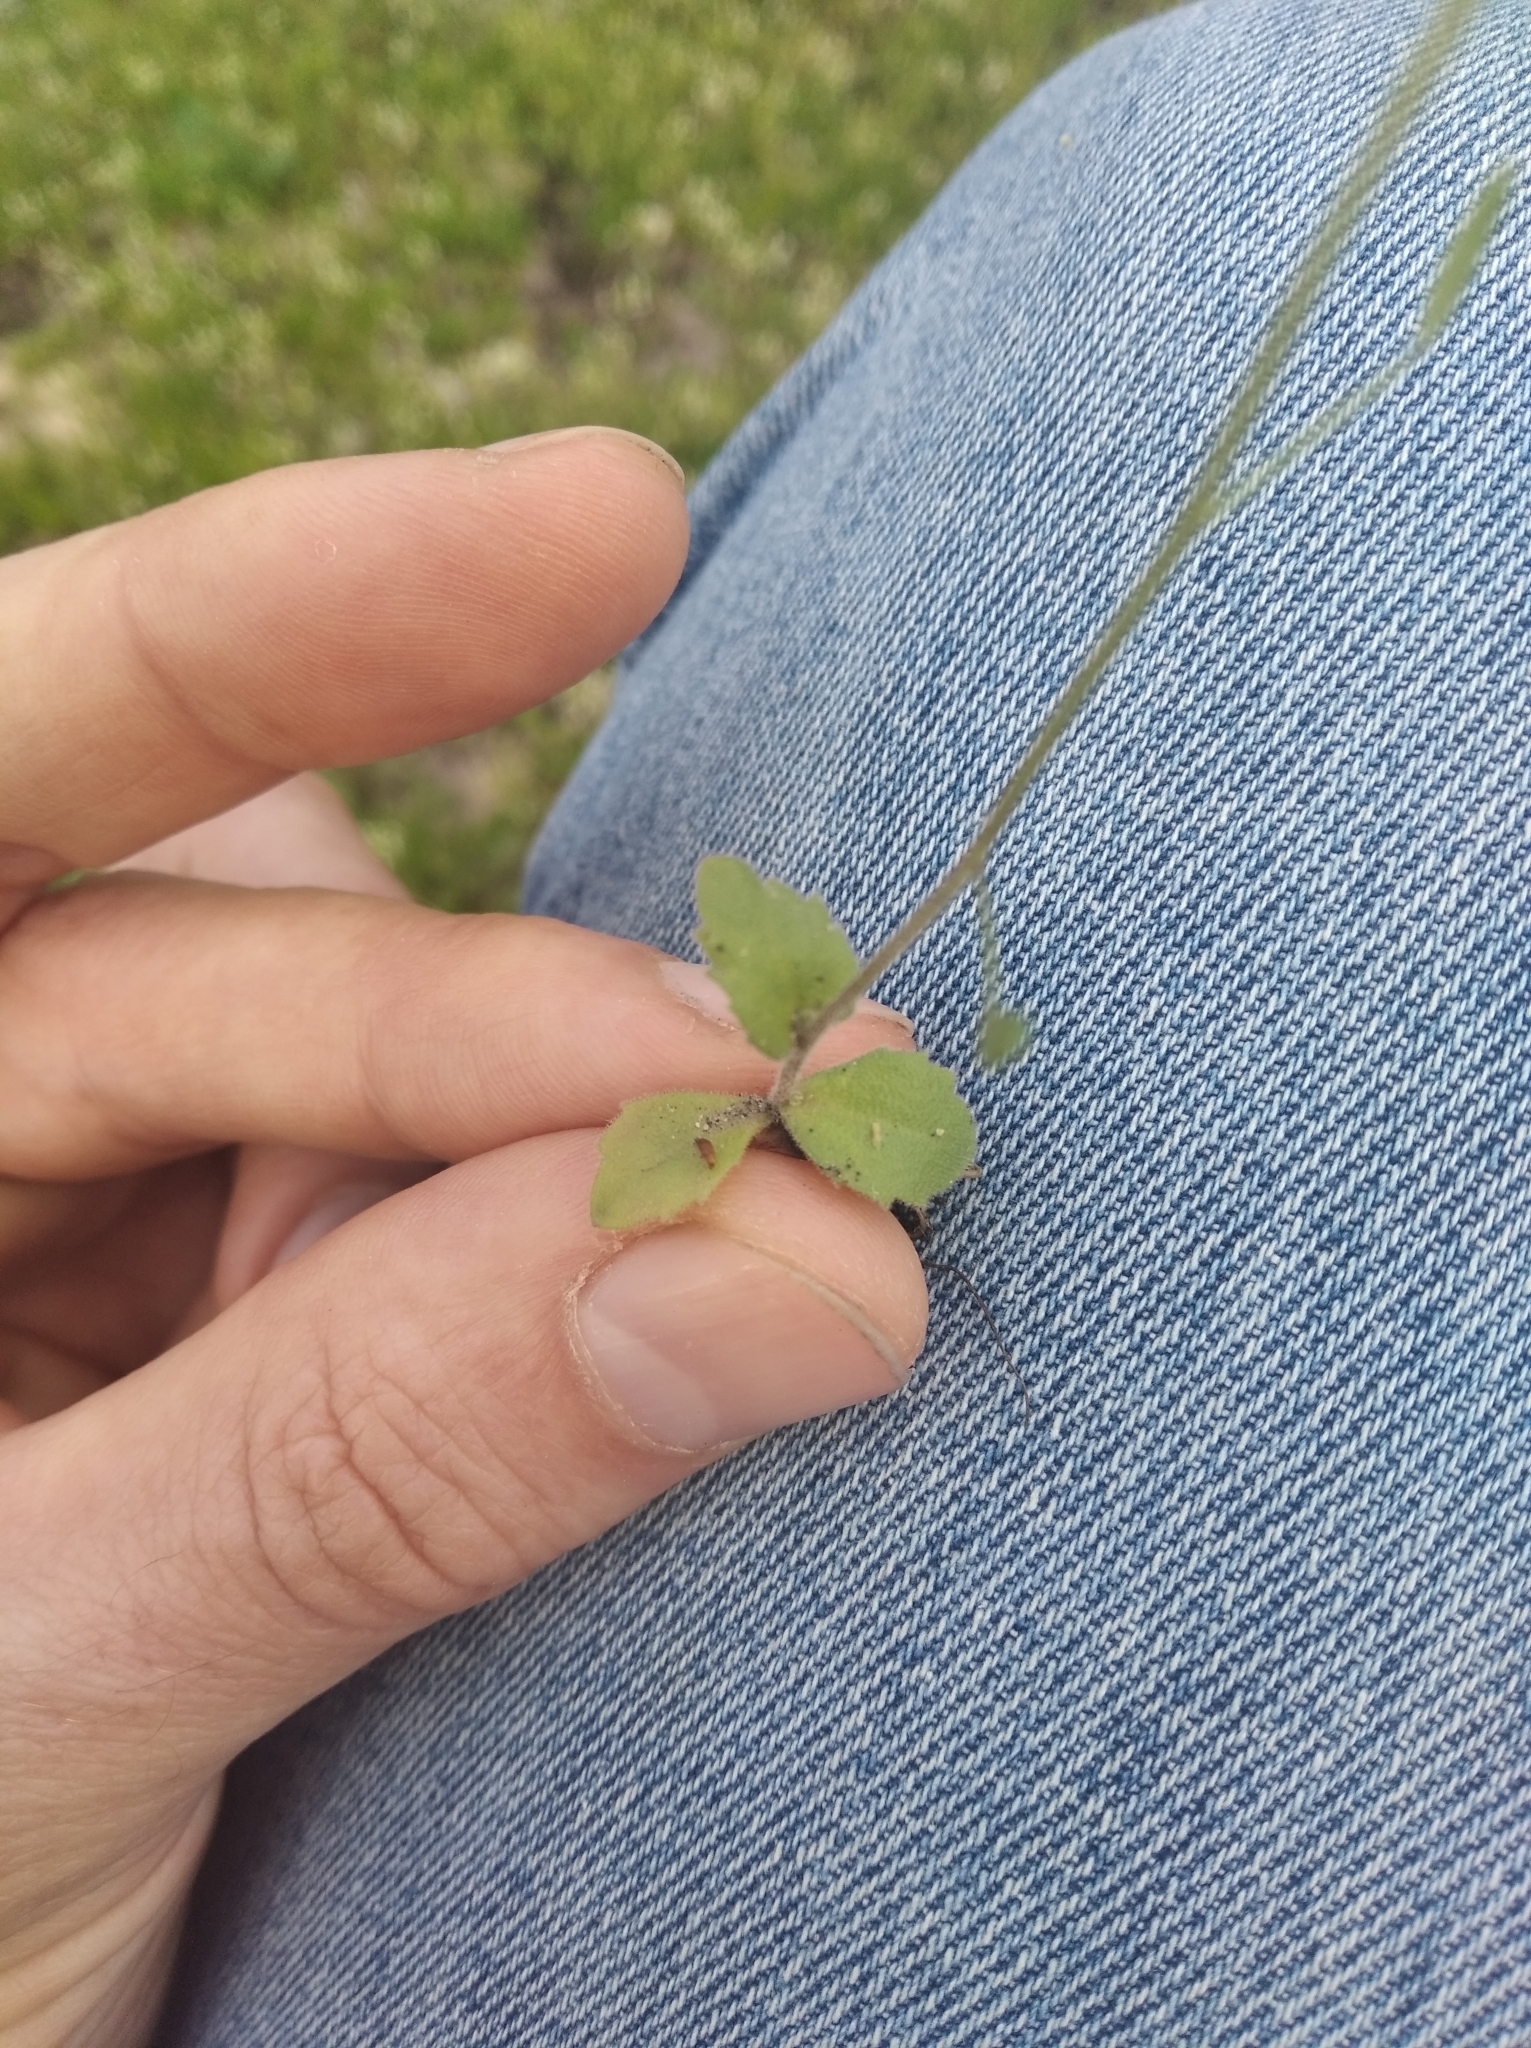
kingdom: Plantae
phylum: Tracheophyta
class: Magnoliopsida
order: Brassicales
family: Brassicaceae
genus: Draba
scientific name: Draba nemorosa
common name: Wood whitlow-grass
